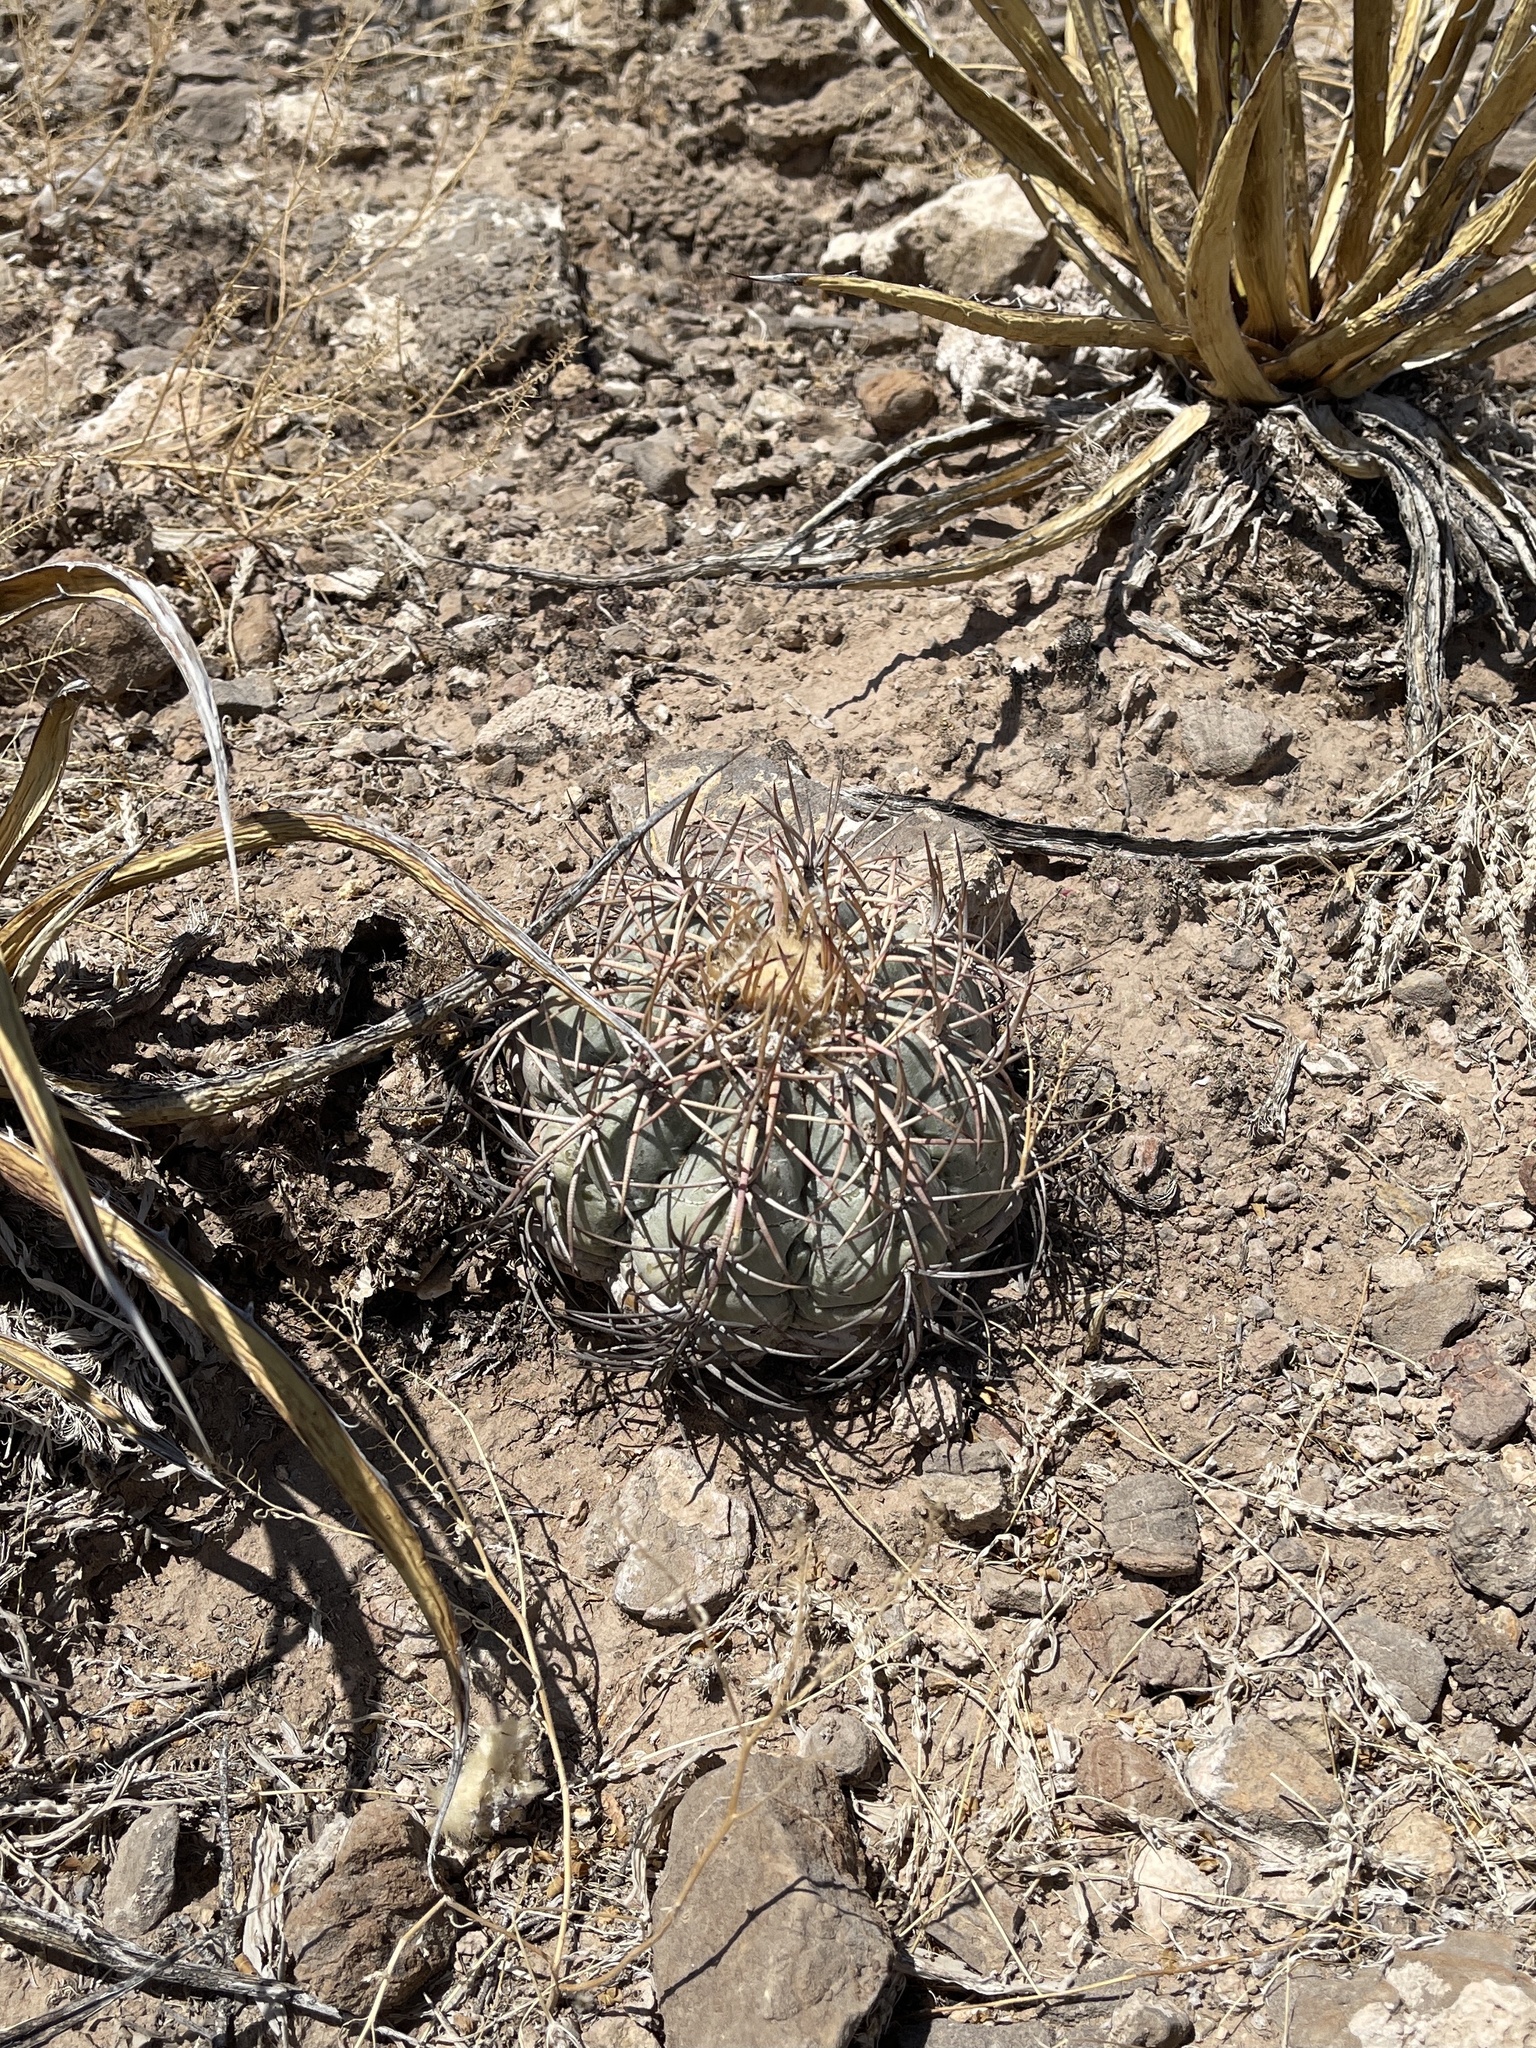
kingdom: Plantae
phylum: Tracheophyta
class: Magnoliopsida
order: Caryophyllales
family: Cactaceae
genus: Echinocactus
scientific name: Echinocactus horizonthalonius
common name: Devilshead
